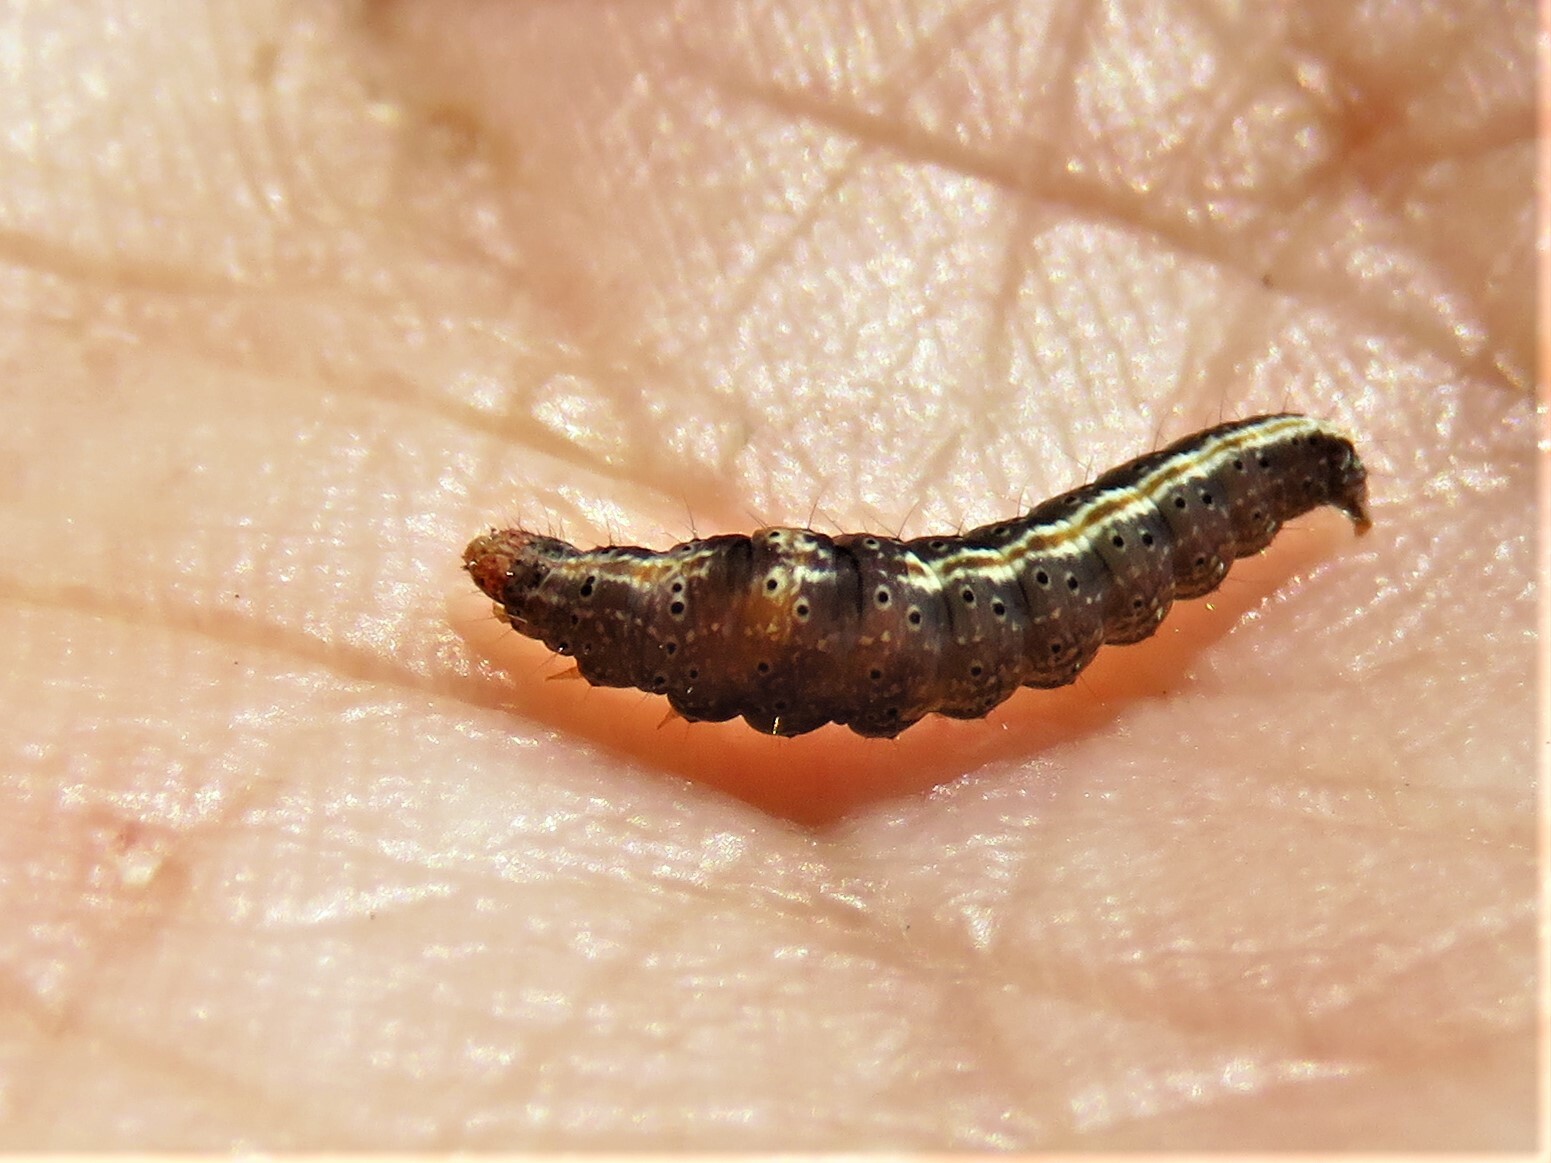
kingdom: Animalia
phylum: Arthropoda
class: Insecta
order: Lepidoptera
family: Ypsolophidae
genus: Ypsolopha
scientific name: Ypsolopha
